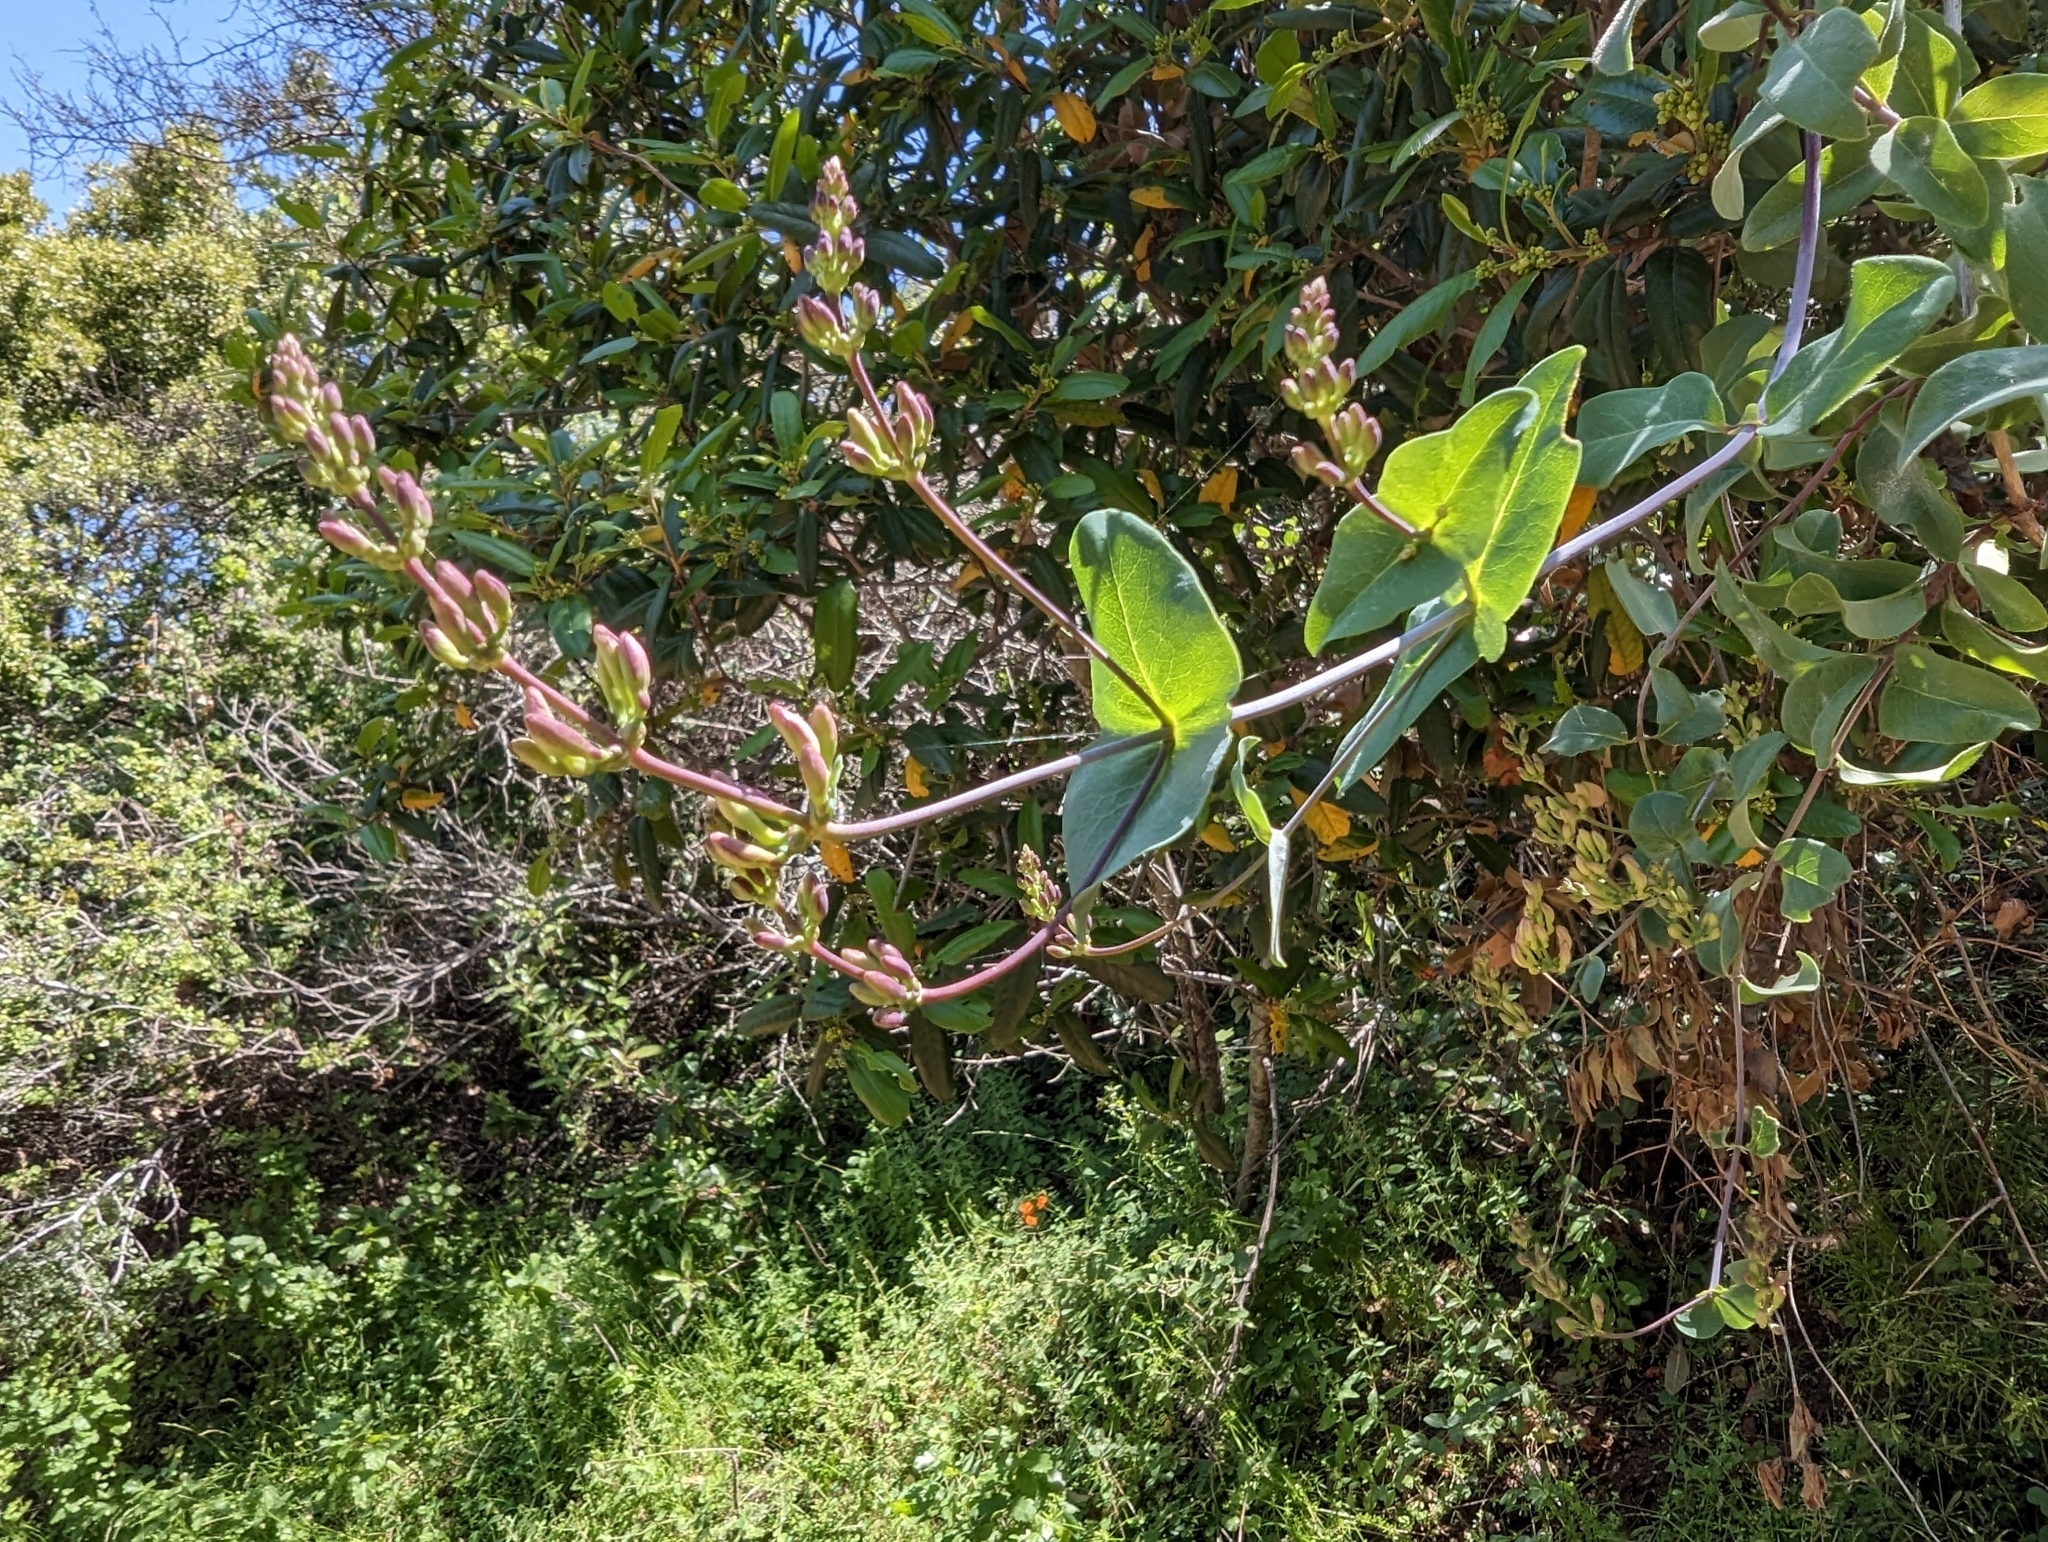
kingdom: Plantae
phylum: Tracheophyta
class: Magnoliopsida
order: Dipsacales
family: Caprifoliaceae
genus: Lonicera
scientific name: Lonicera hispidula
